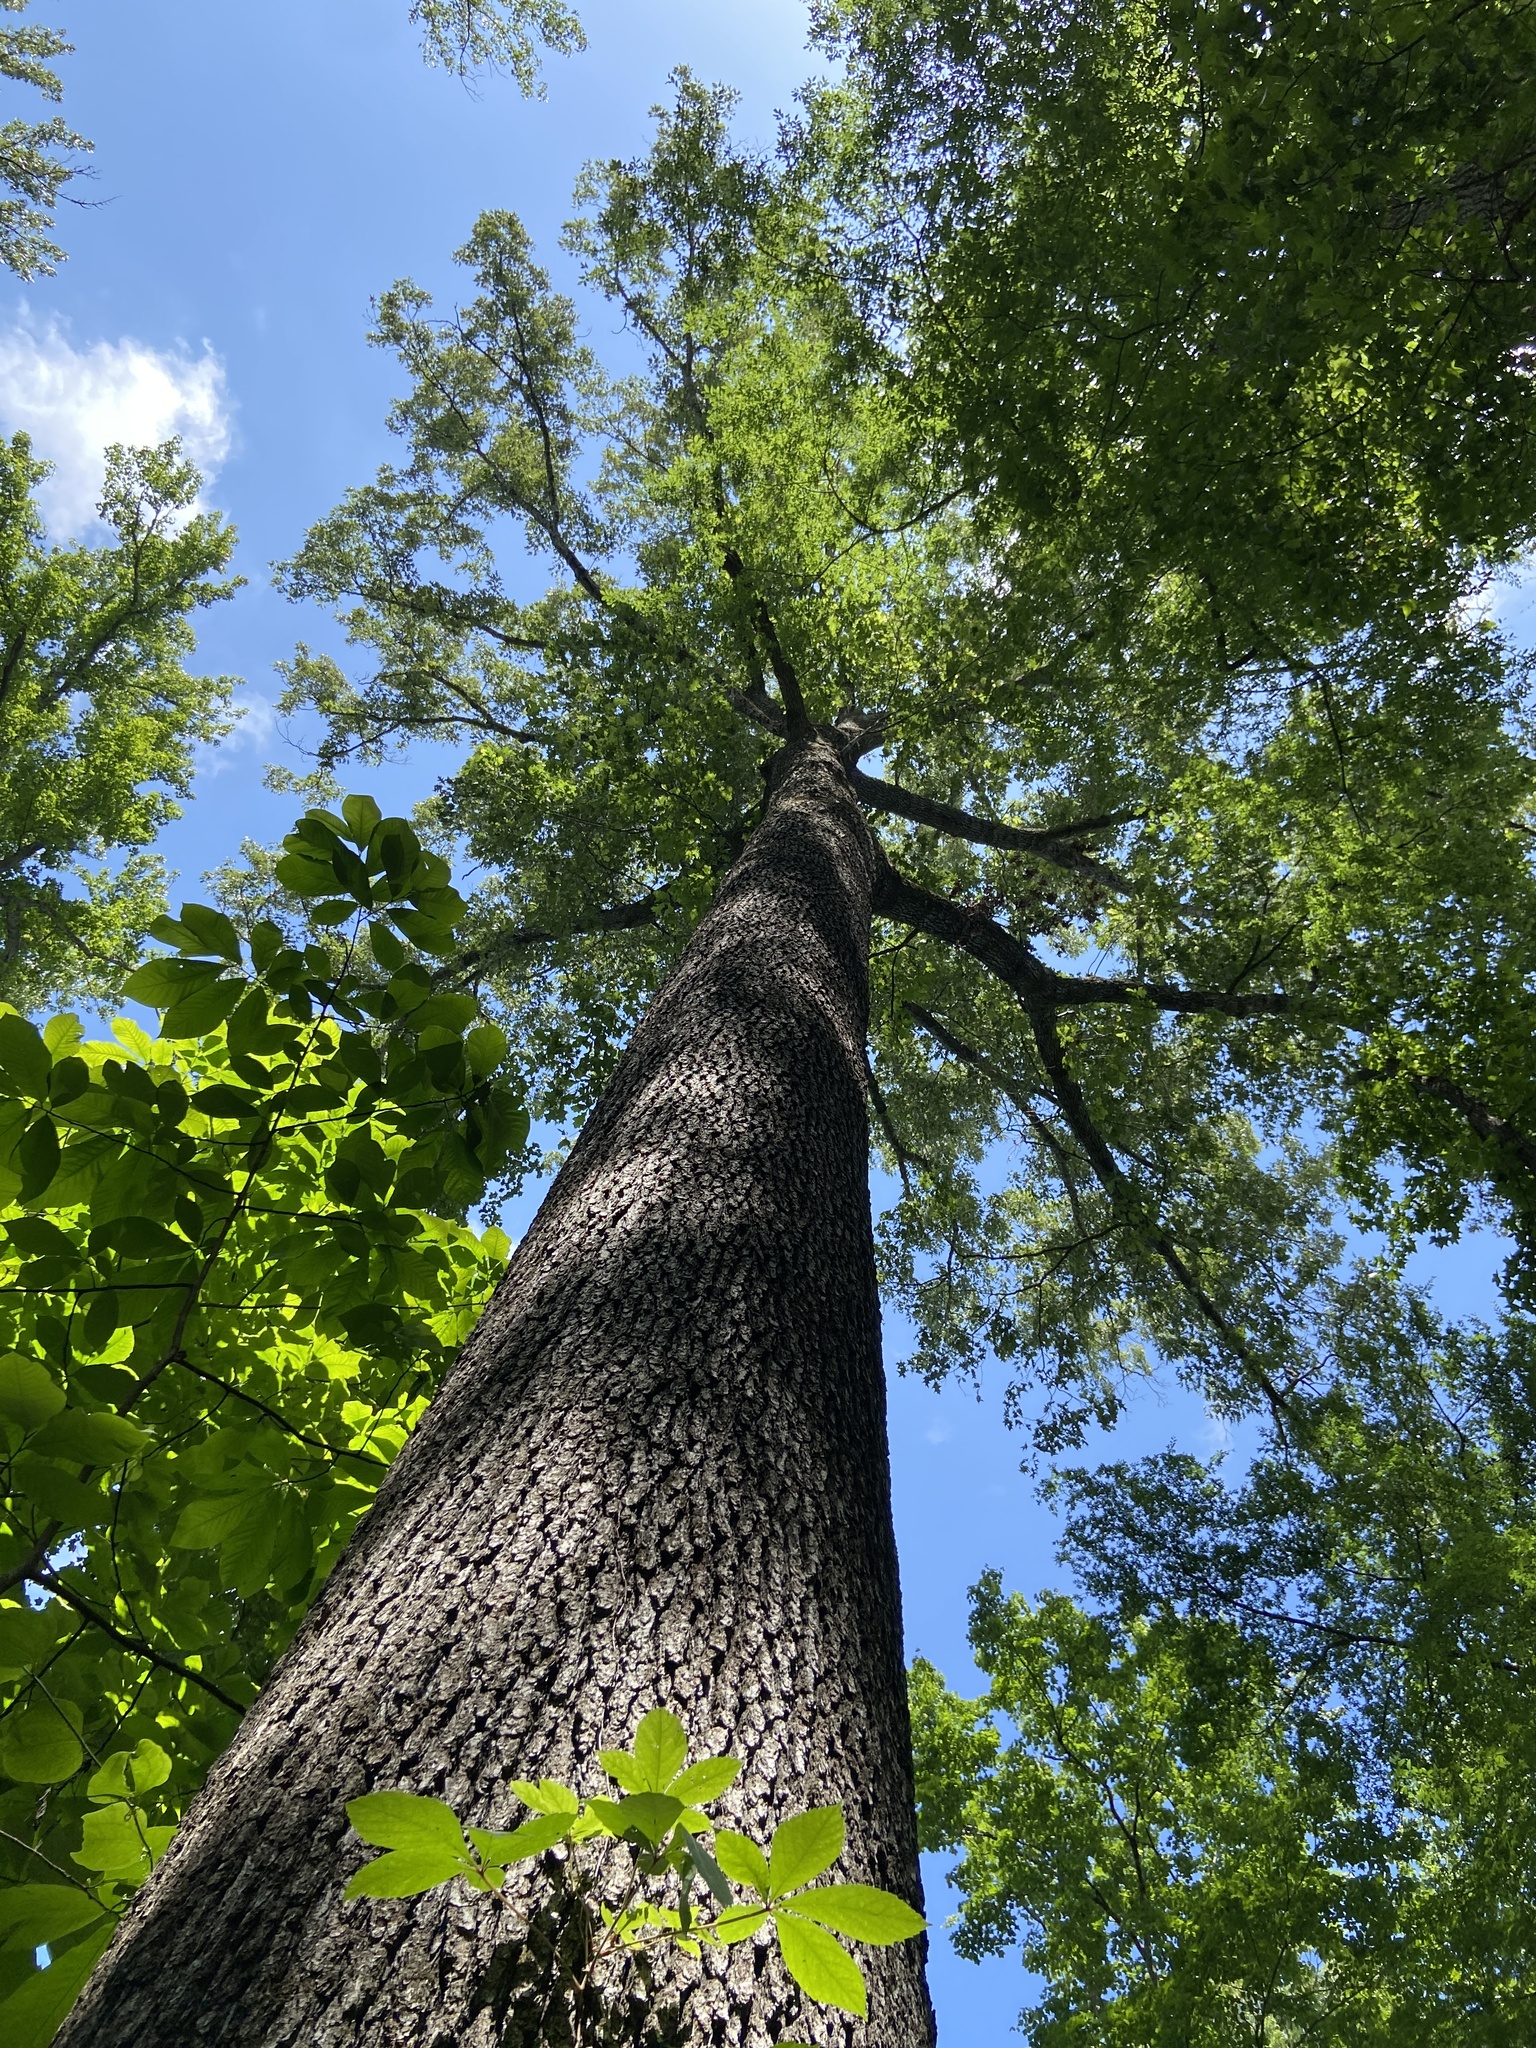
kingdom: Plantae
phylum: Tracheophyta
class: Magnoliopsida
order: Fagales
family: Fagaceae
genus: Quercus
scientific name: Quercus pagoda
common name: Cherrybark oak
